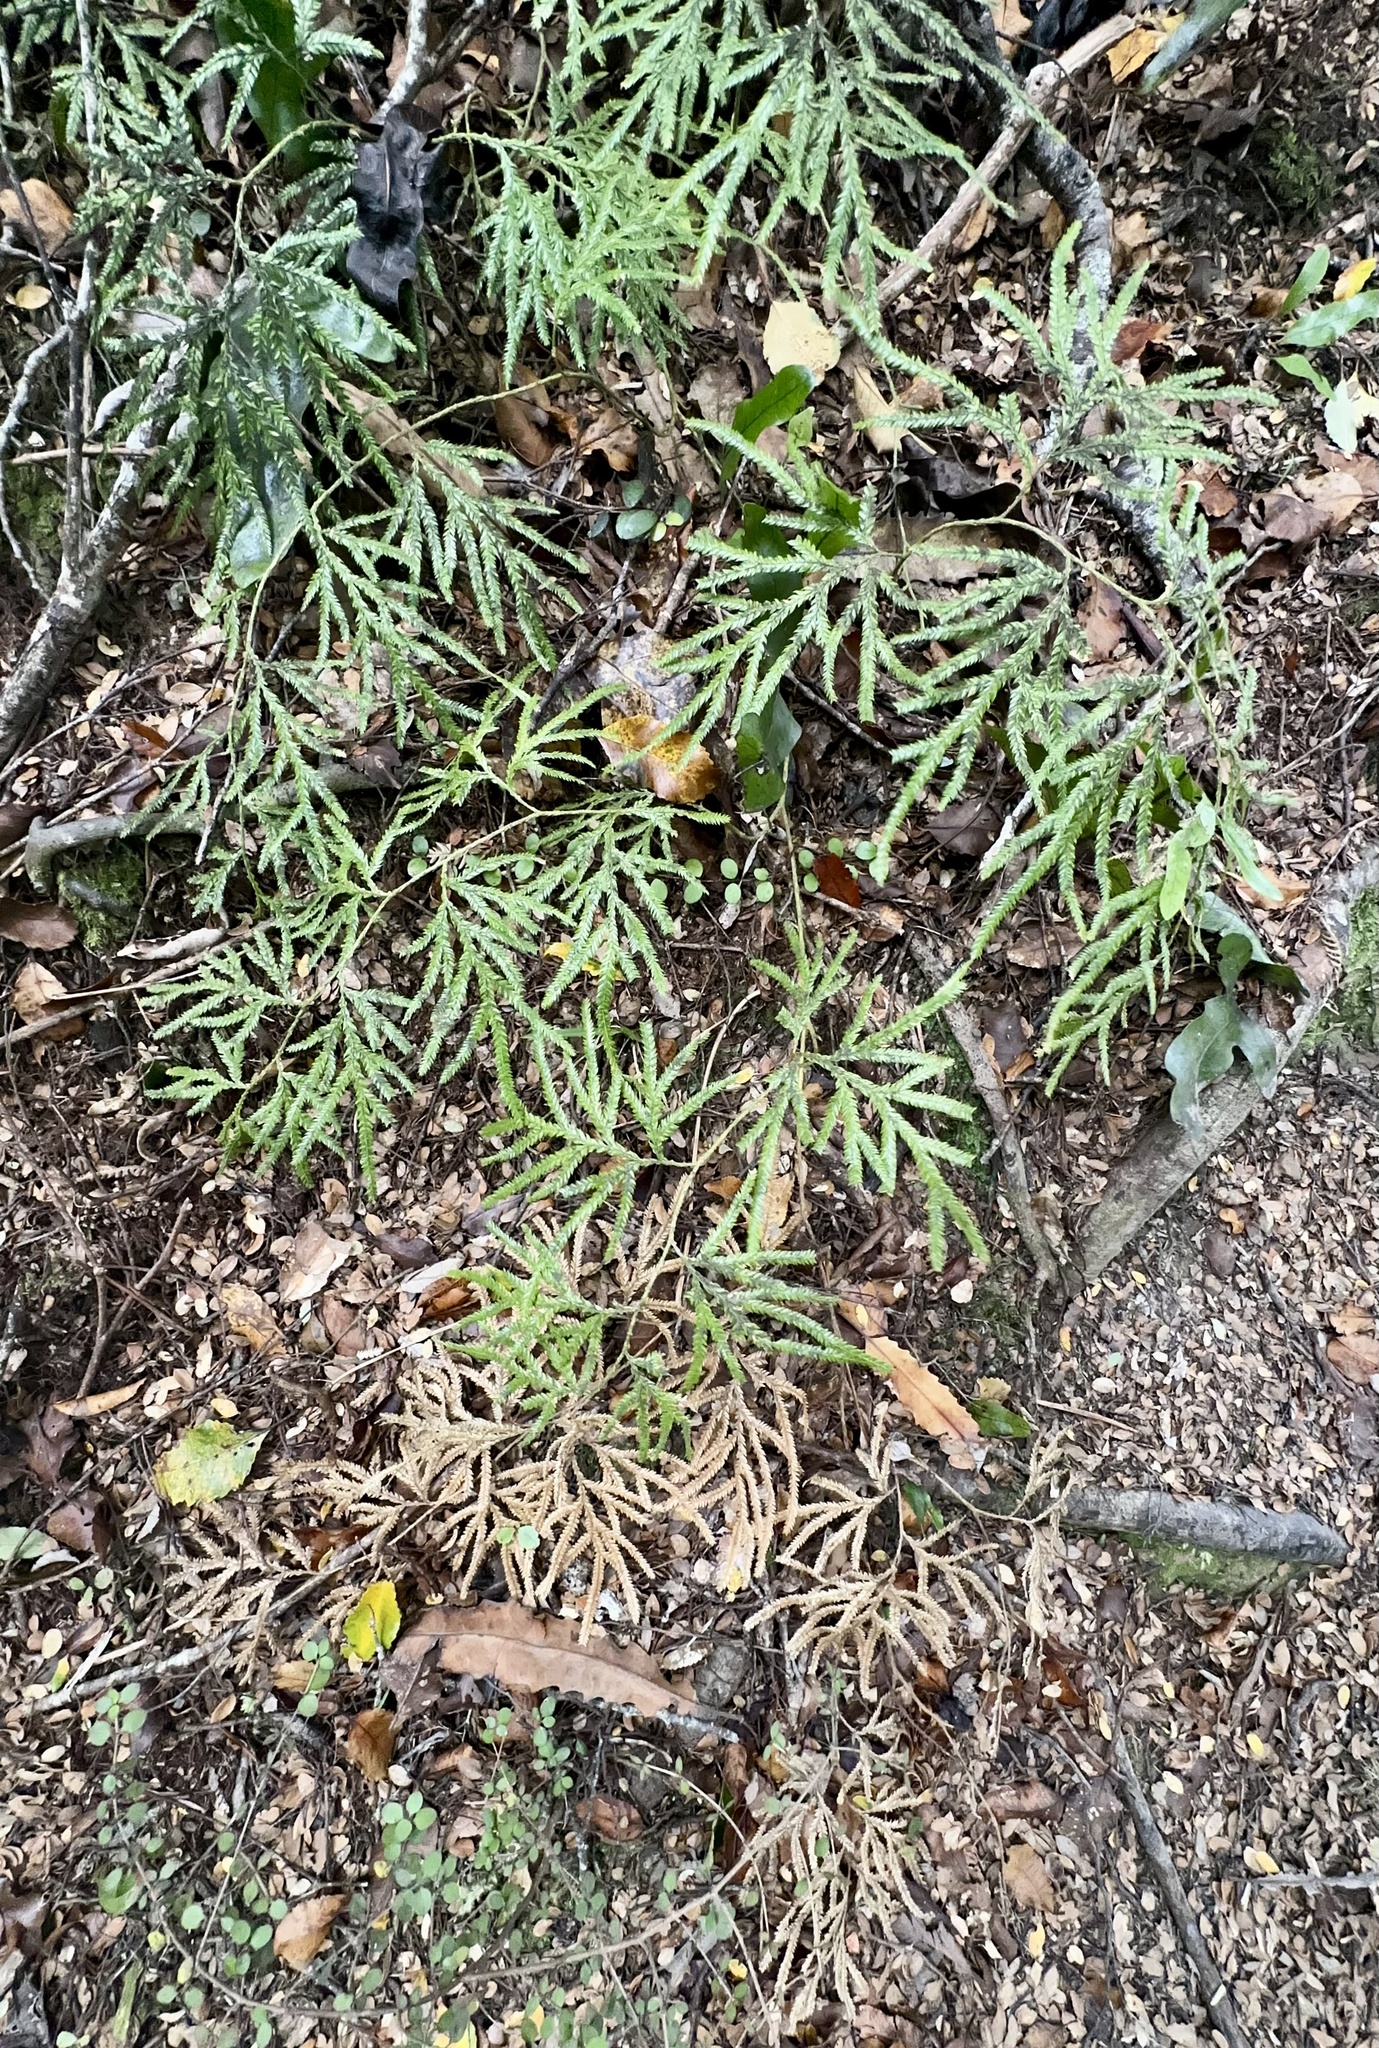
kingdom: Plantae
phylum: Tracheophyta
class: Lycopodiopsida
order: Lycopodiales
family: Lycopodiaceae
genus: Lycopodium
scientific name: Lycopodium volubile
